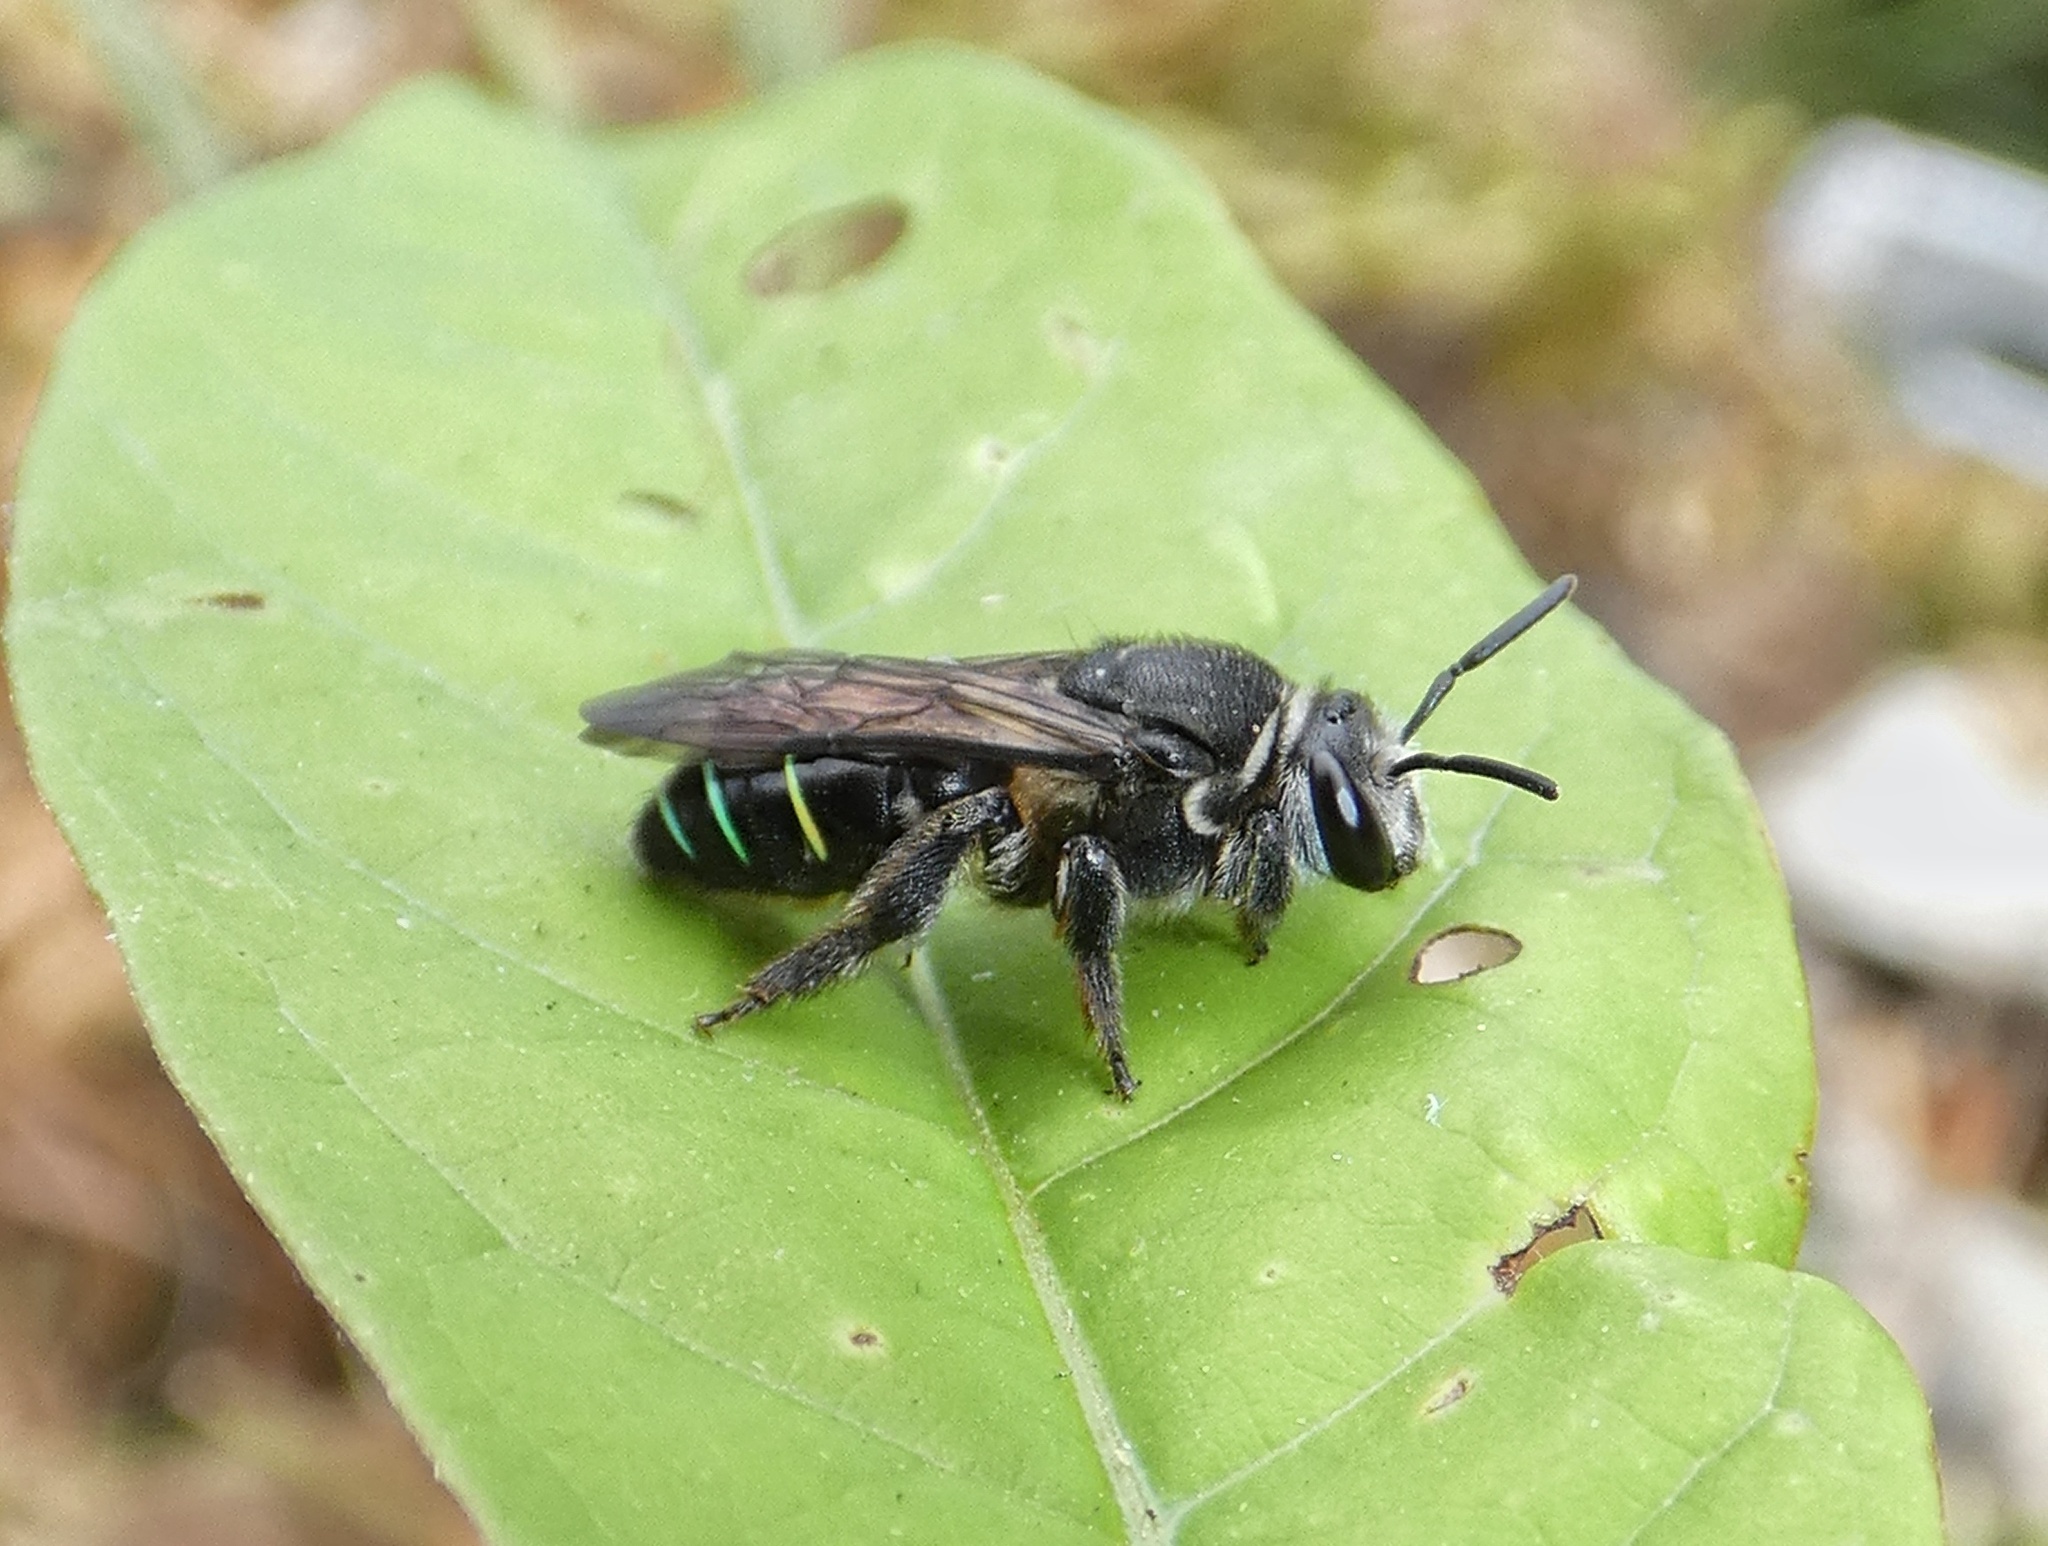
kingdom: Animalia
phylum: Arthropoda
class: Insecta
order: Hymenoptera
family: Halictidae
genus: Nomia
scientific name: Nomia incerta
